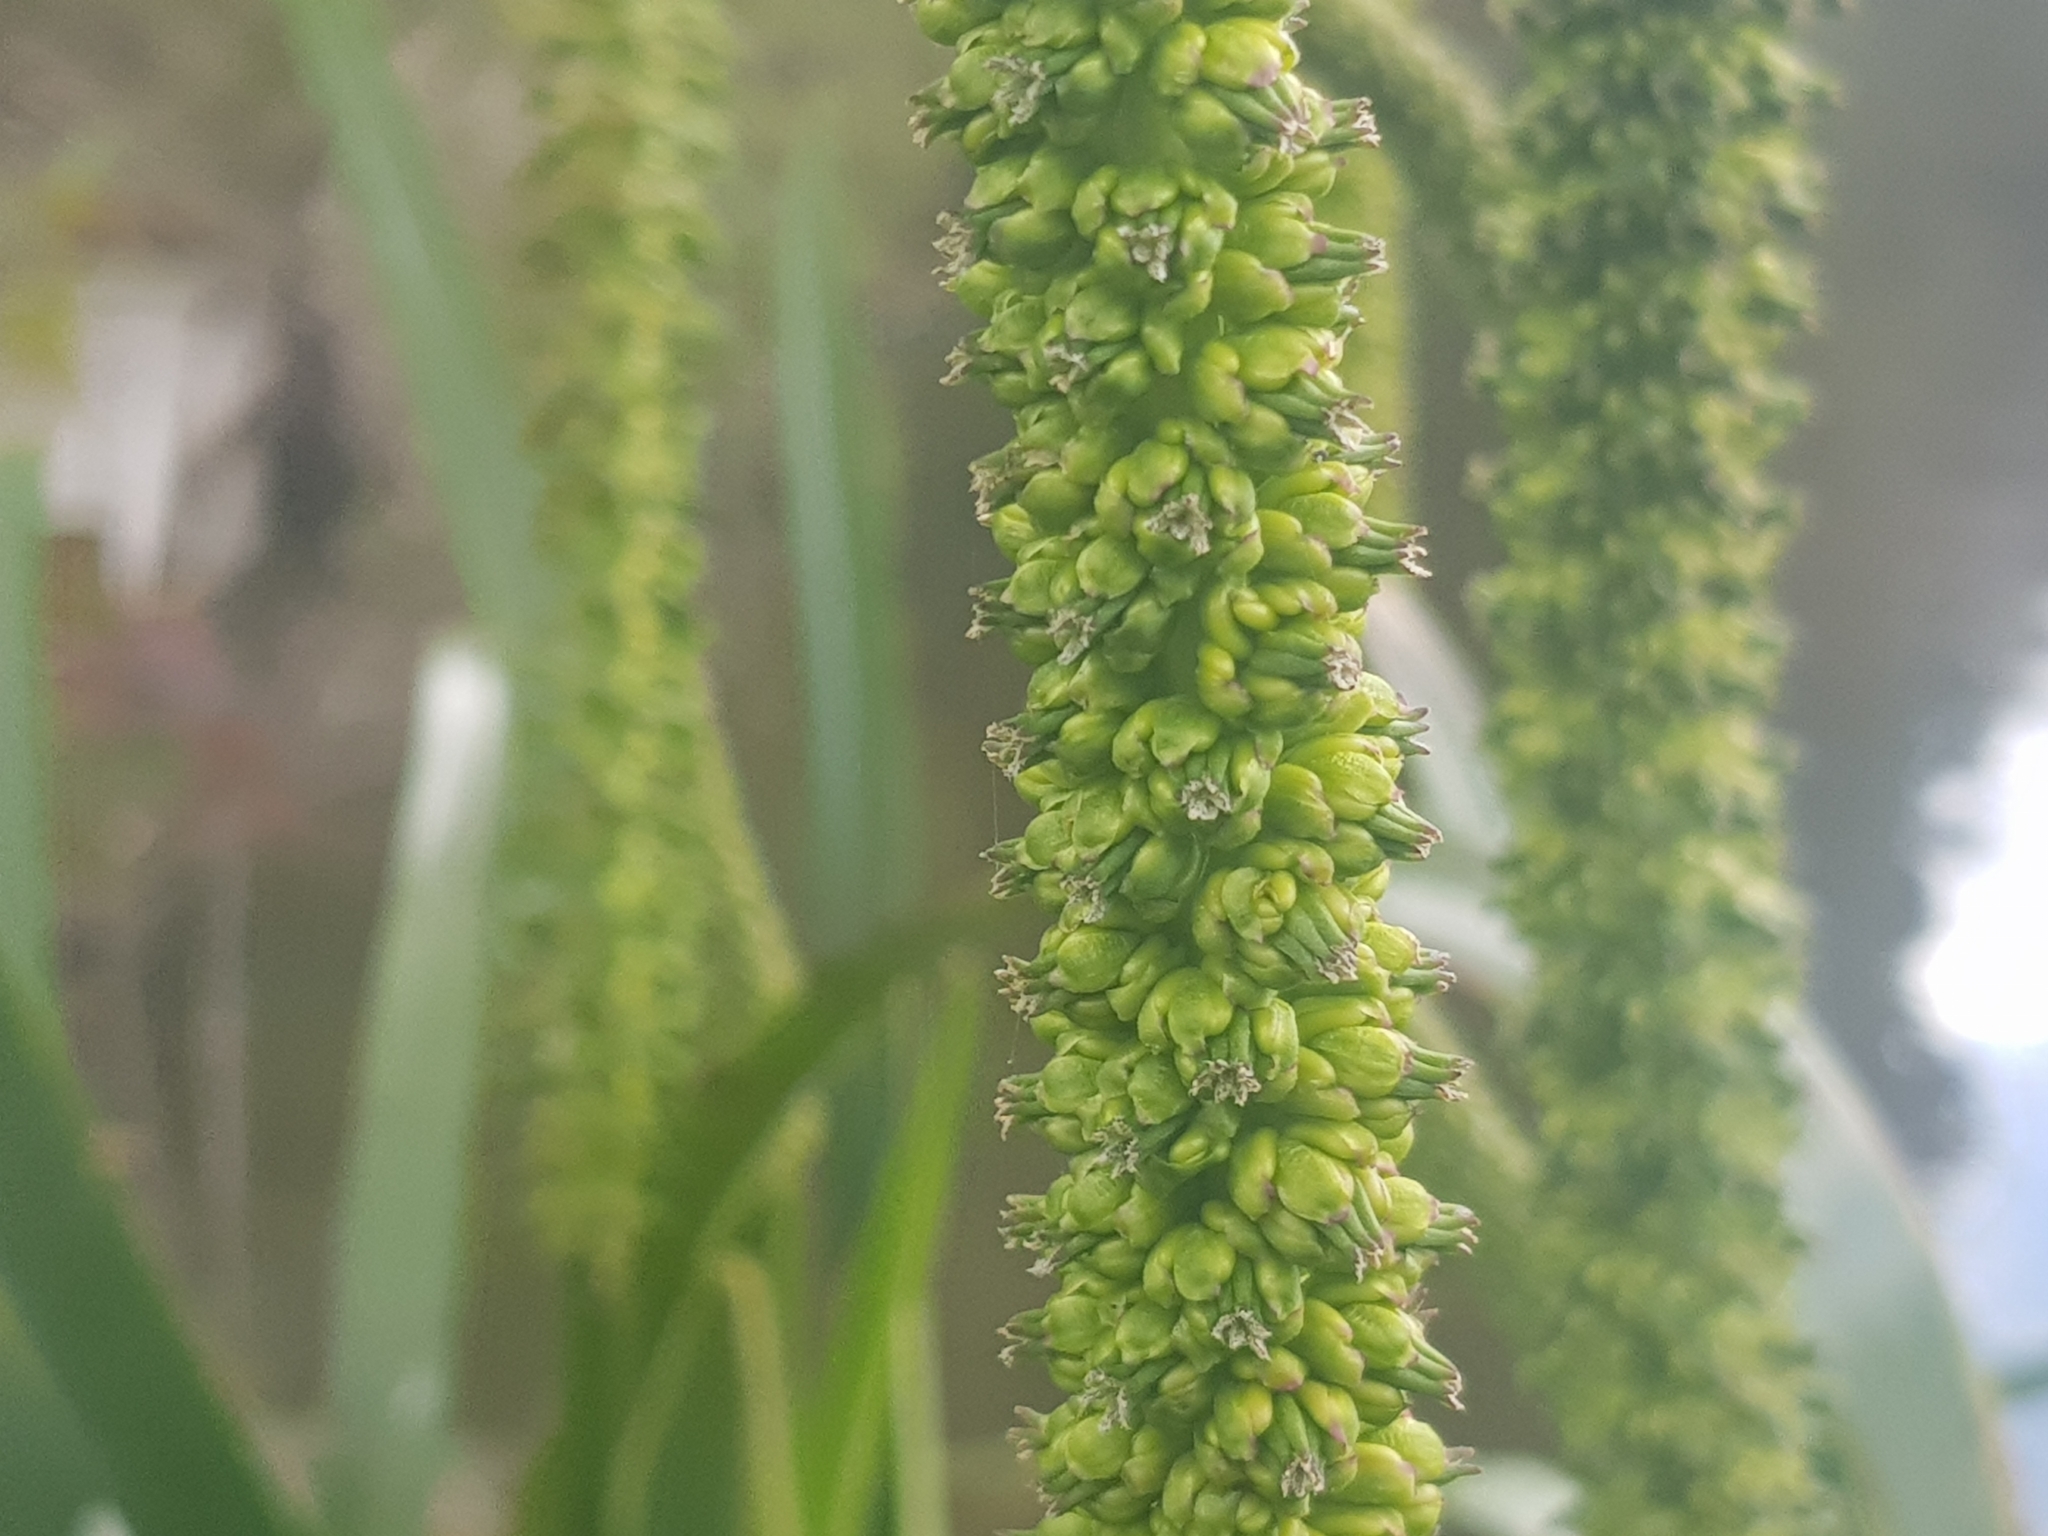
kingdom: Plantae
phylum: Tracheophyta
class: Liliopsida
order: Alismatales
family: Juncaginaceae
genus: Cycnogeton
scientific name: Cycnogeton procerum
